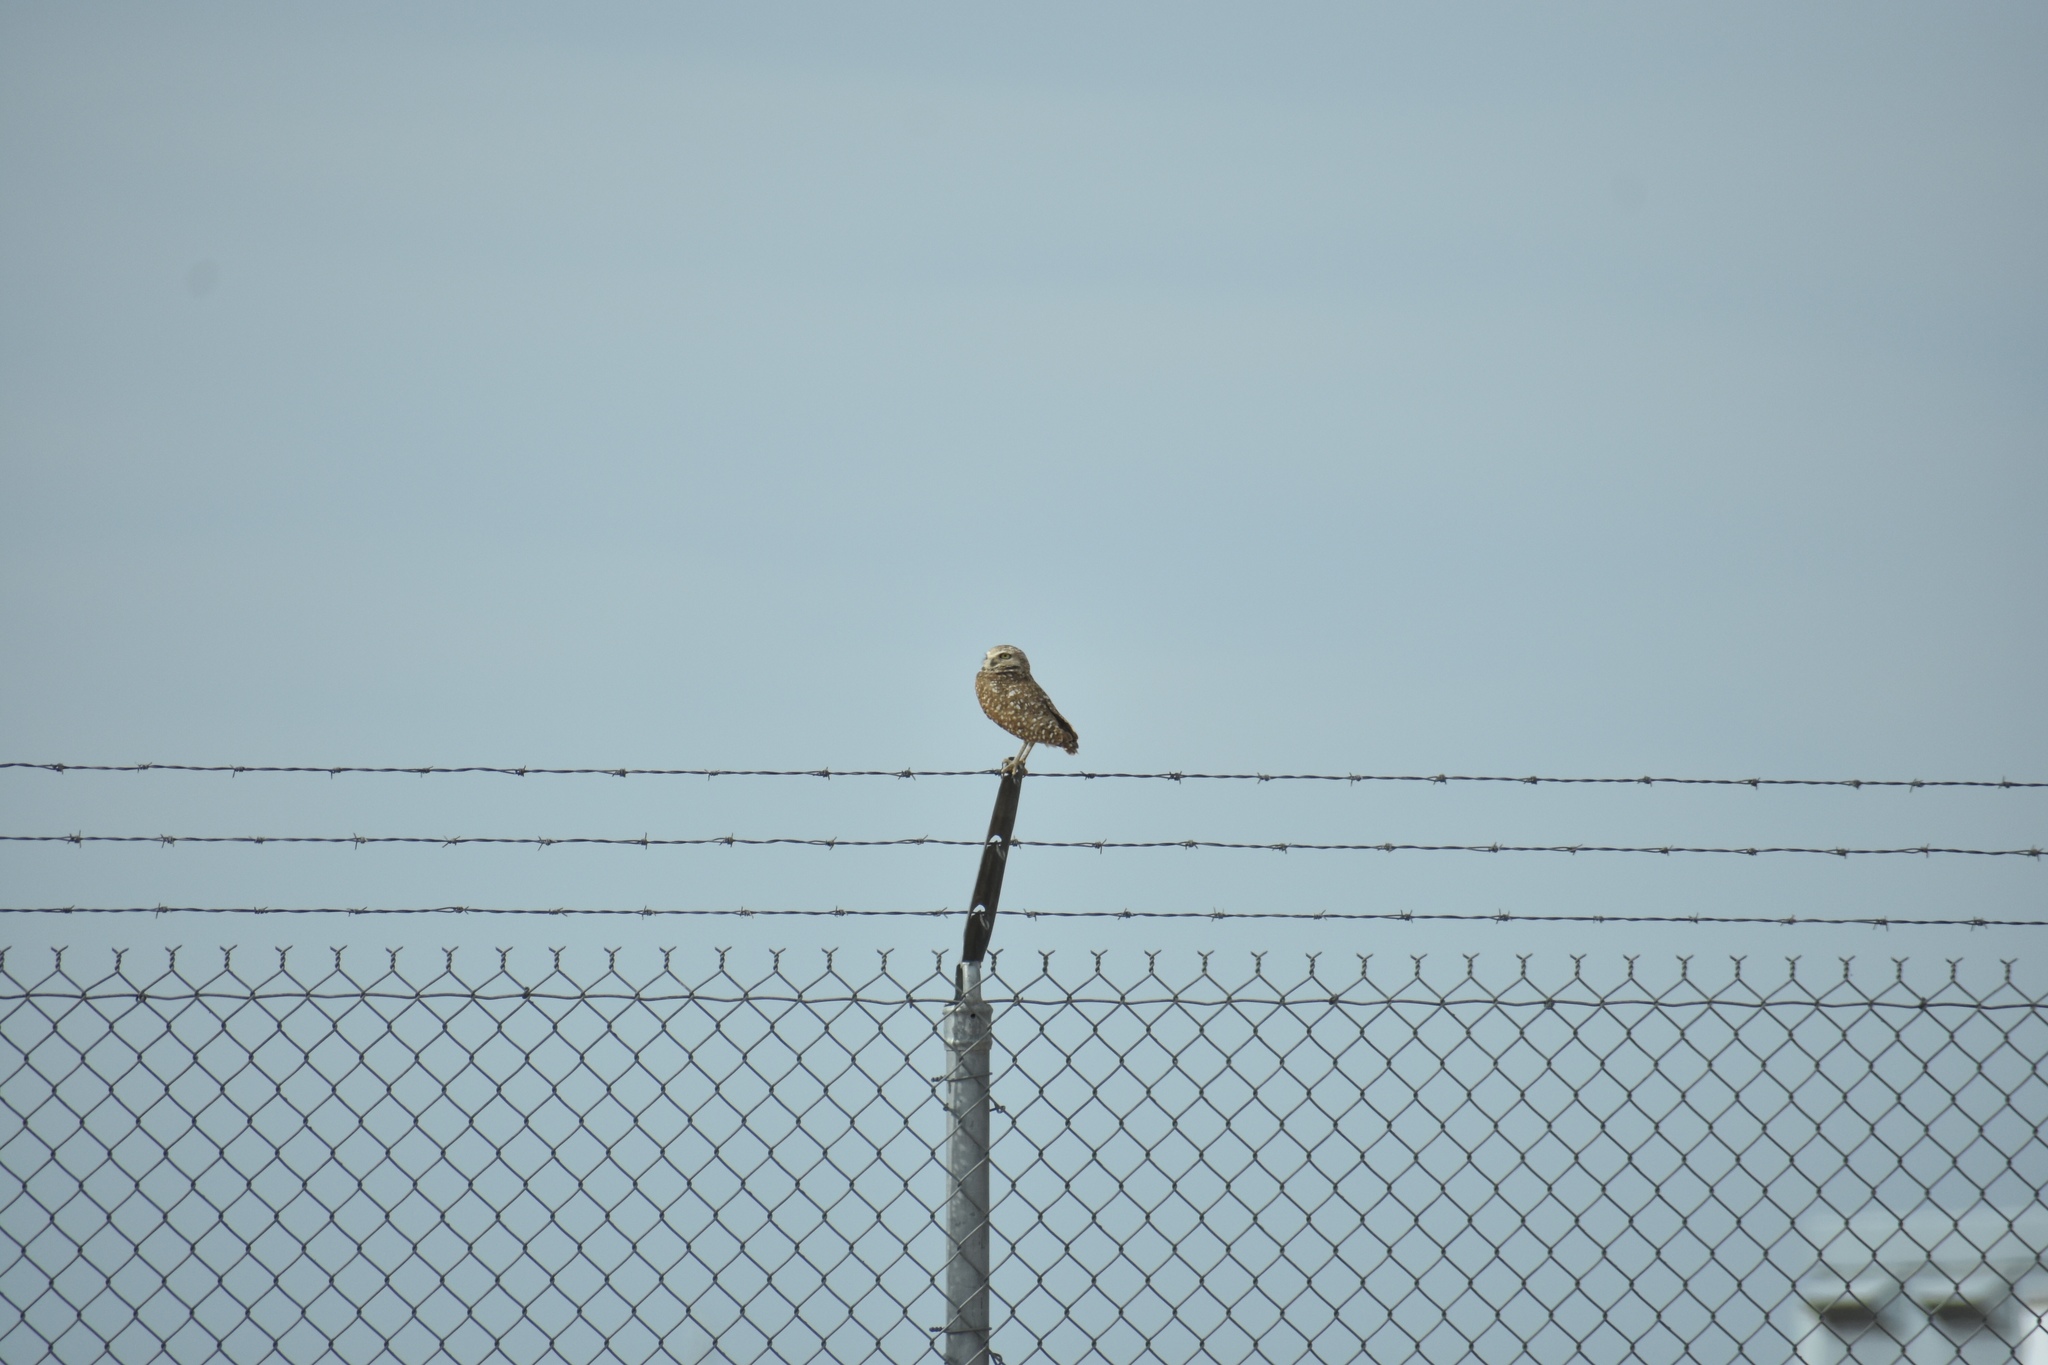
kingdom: Animalia
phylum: Chordata
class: Aves
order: Strigiformes
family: Strigidae
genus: Athene
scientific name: Athene cunicularia
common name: Burrowing owl
